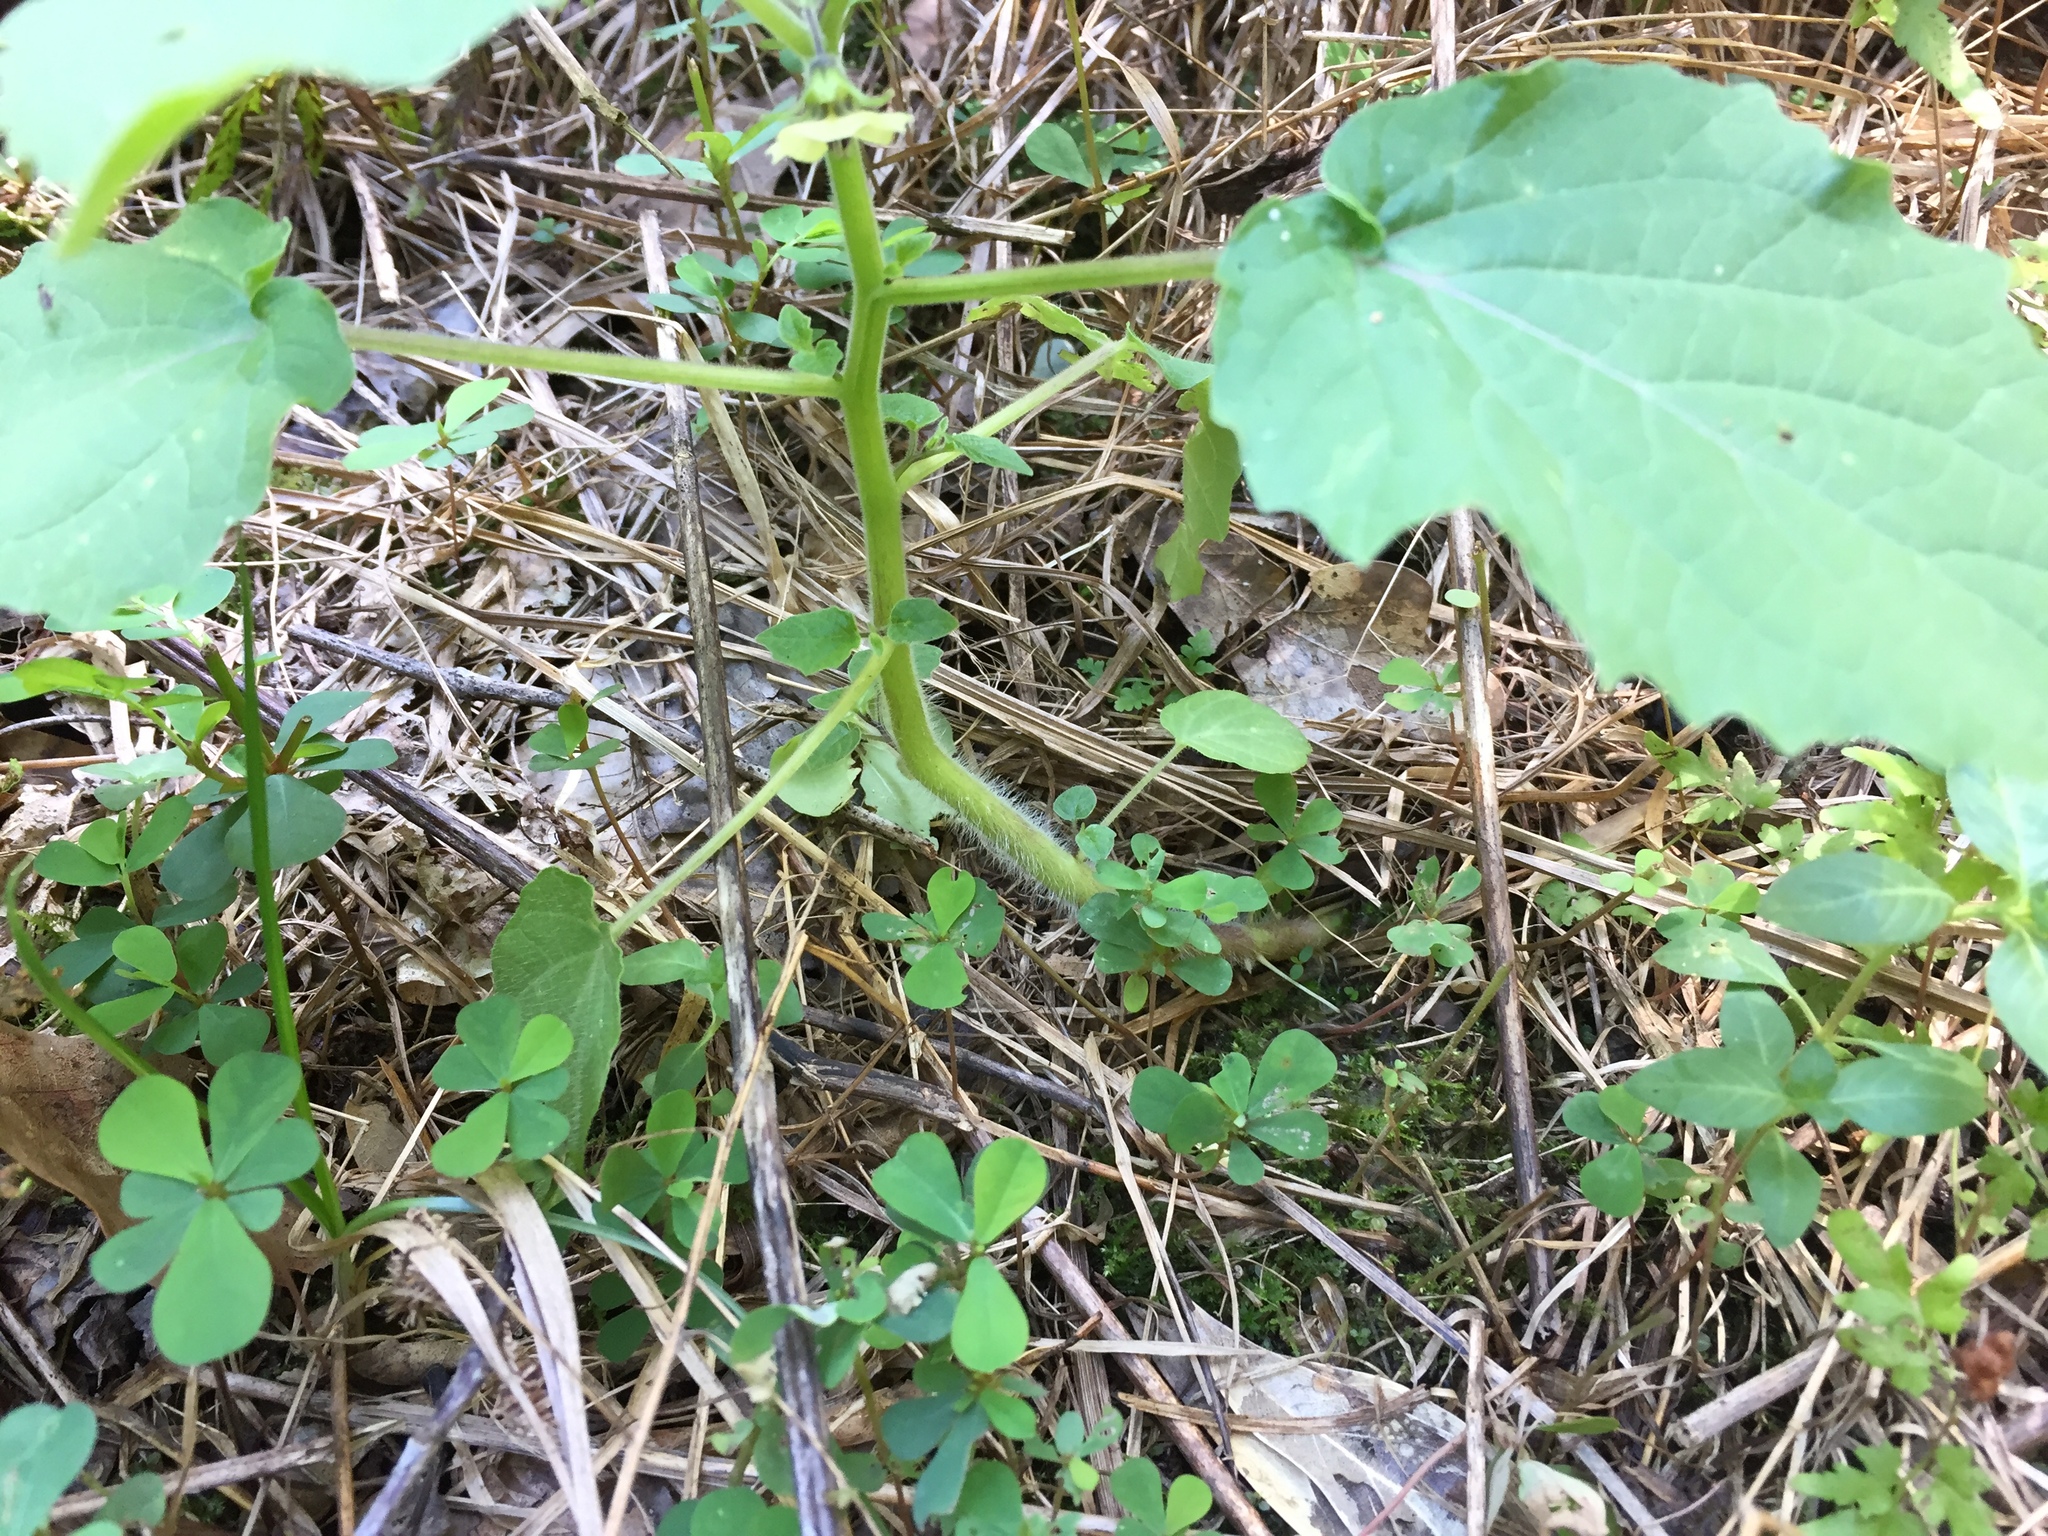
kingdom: Plantae
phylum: Tracheophyta
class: Magnoliopsida
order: Solanales
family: Solanaceae
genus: Physalis
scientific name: Physalis grisea
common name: Dwarf cape-gooseberry
